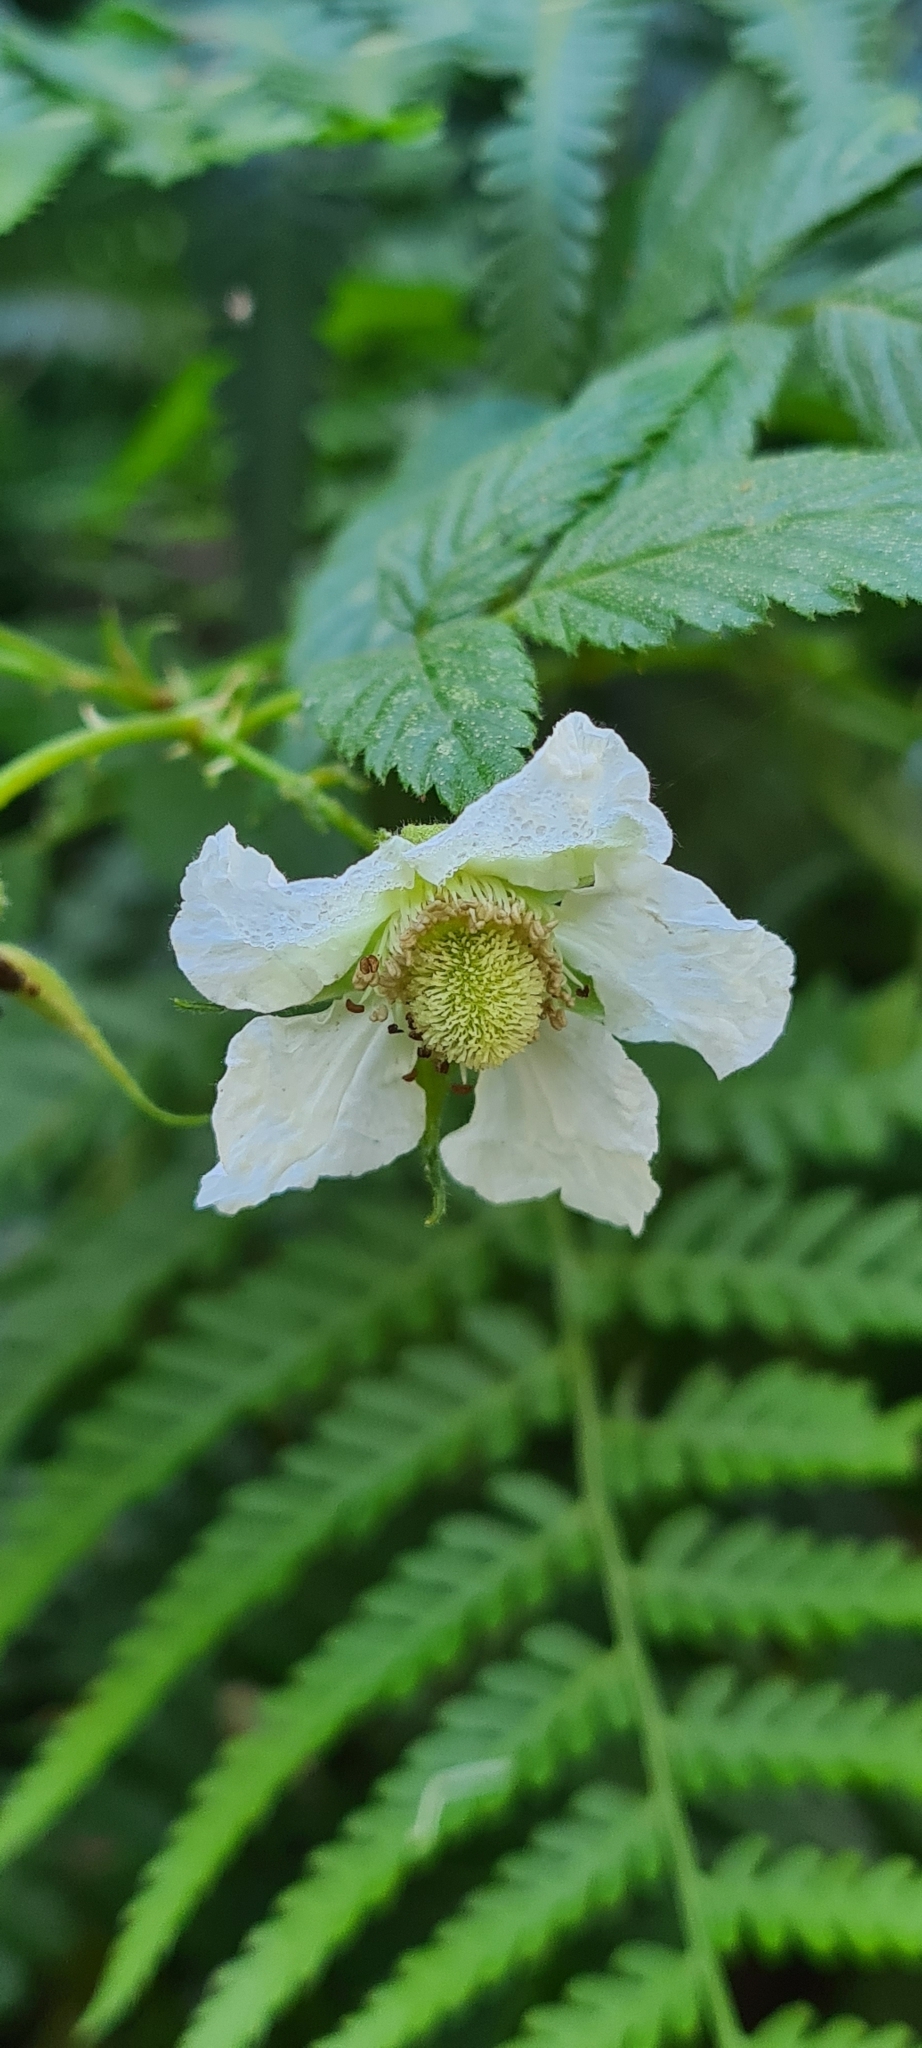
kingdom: Plantae
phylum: Tracheophyta
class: Magnoliopsida
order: Rosales
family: Rosaceae
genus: Rubus
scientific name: Rubus rosifolius
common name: Roseleaf raspberry
